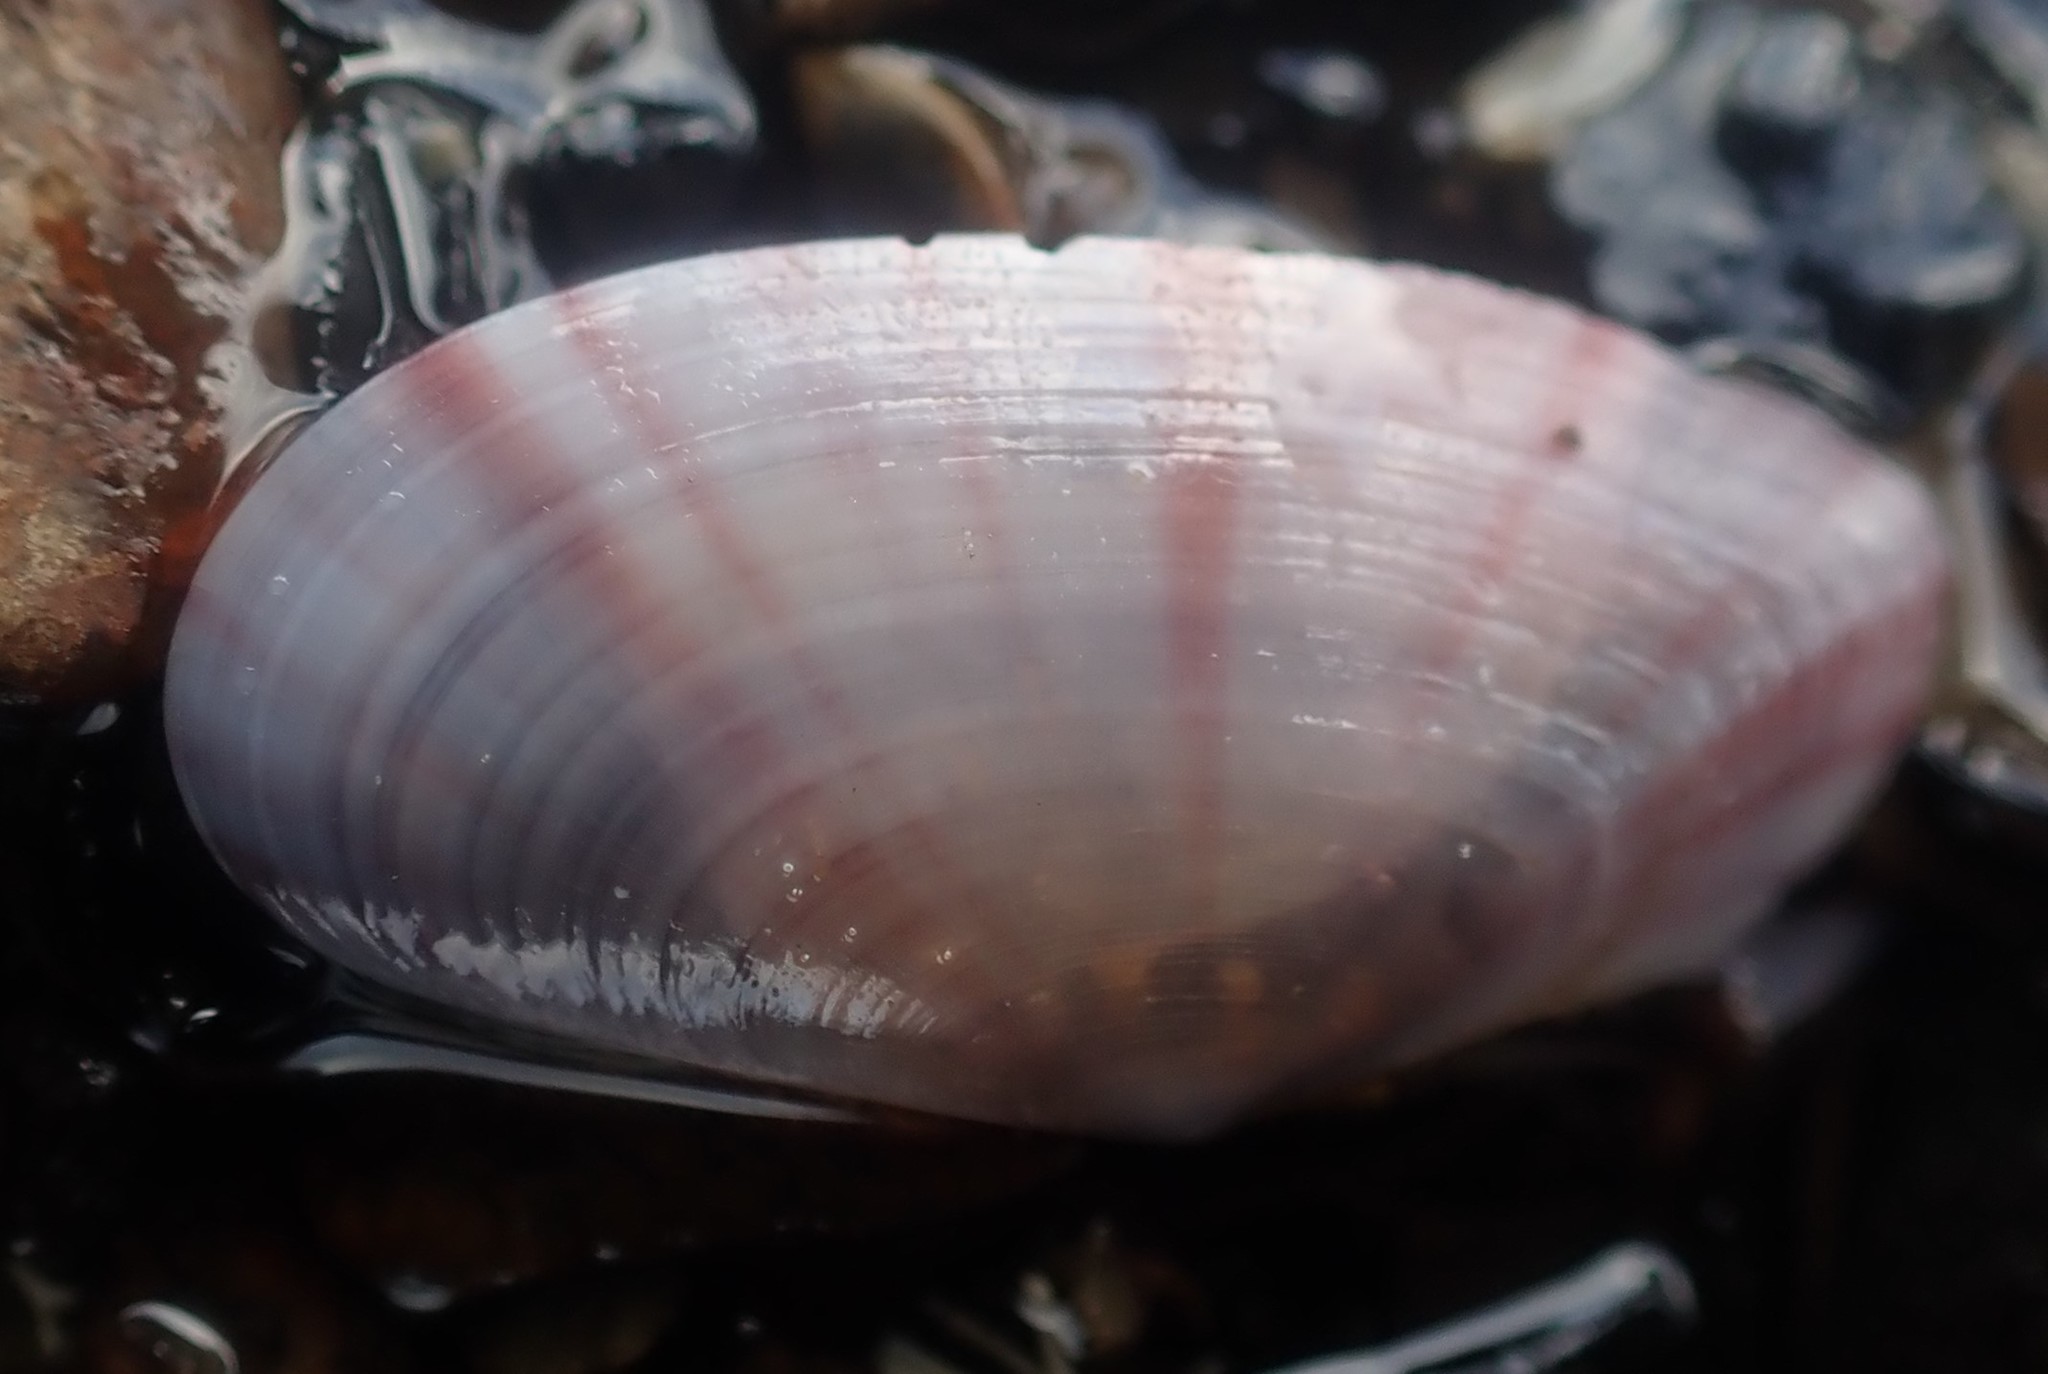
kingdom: Animalia
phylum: Mollusca
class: Bivalvia
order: Cardiida
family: Psammobiidae
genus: Gari
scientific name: Gari convexa
